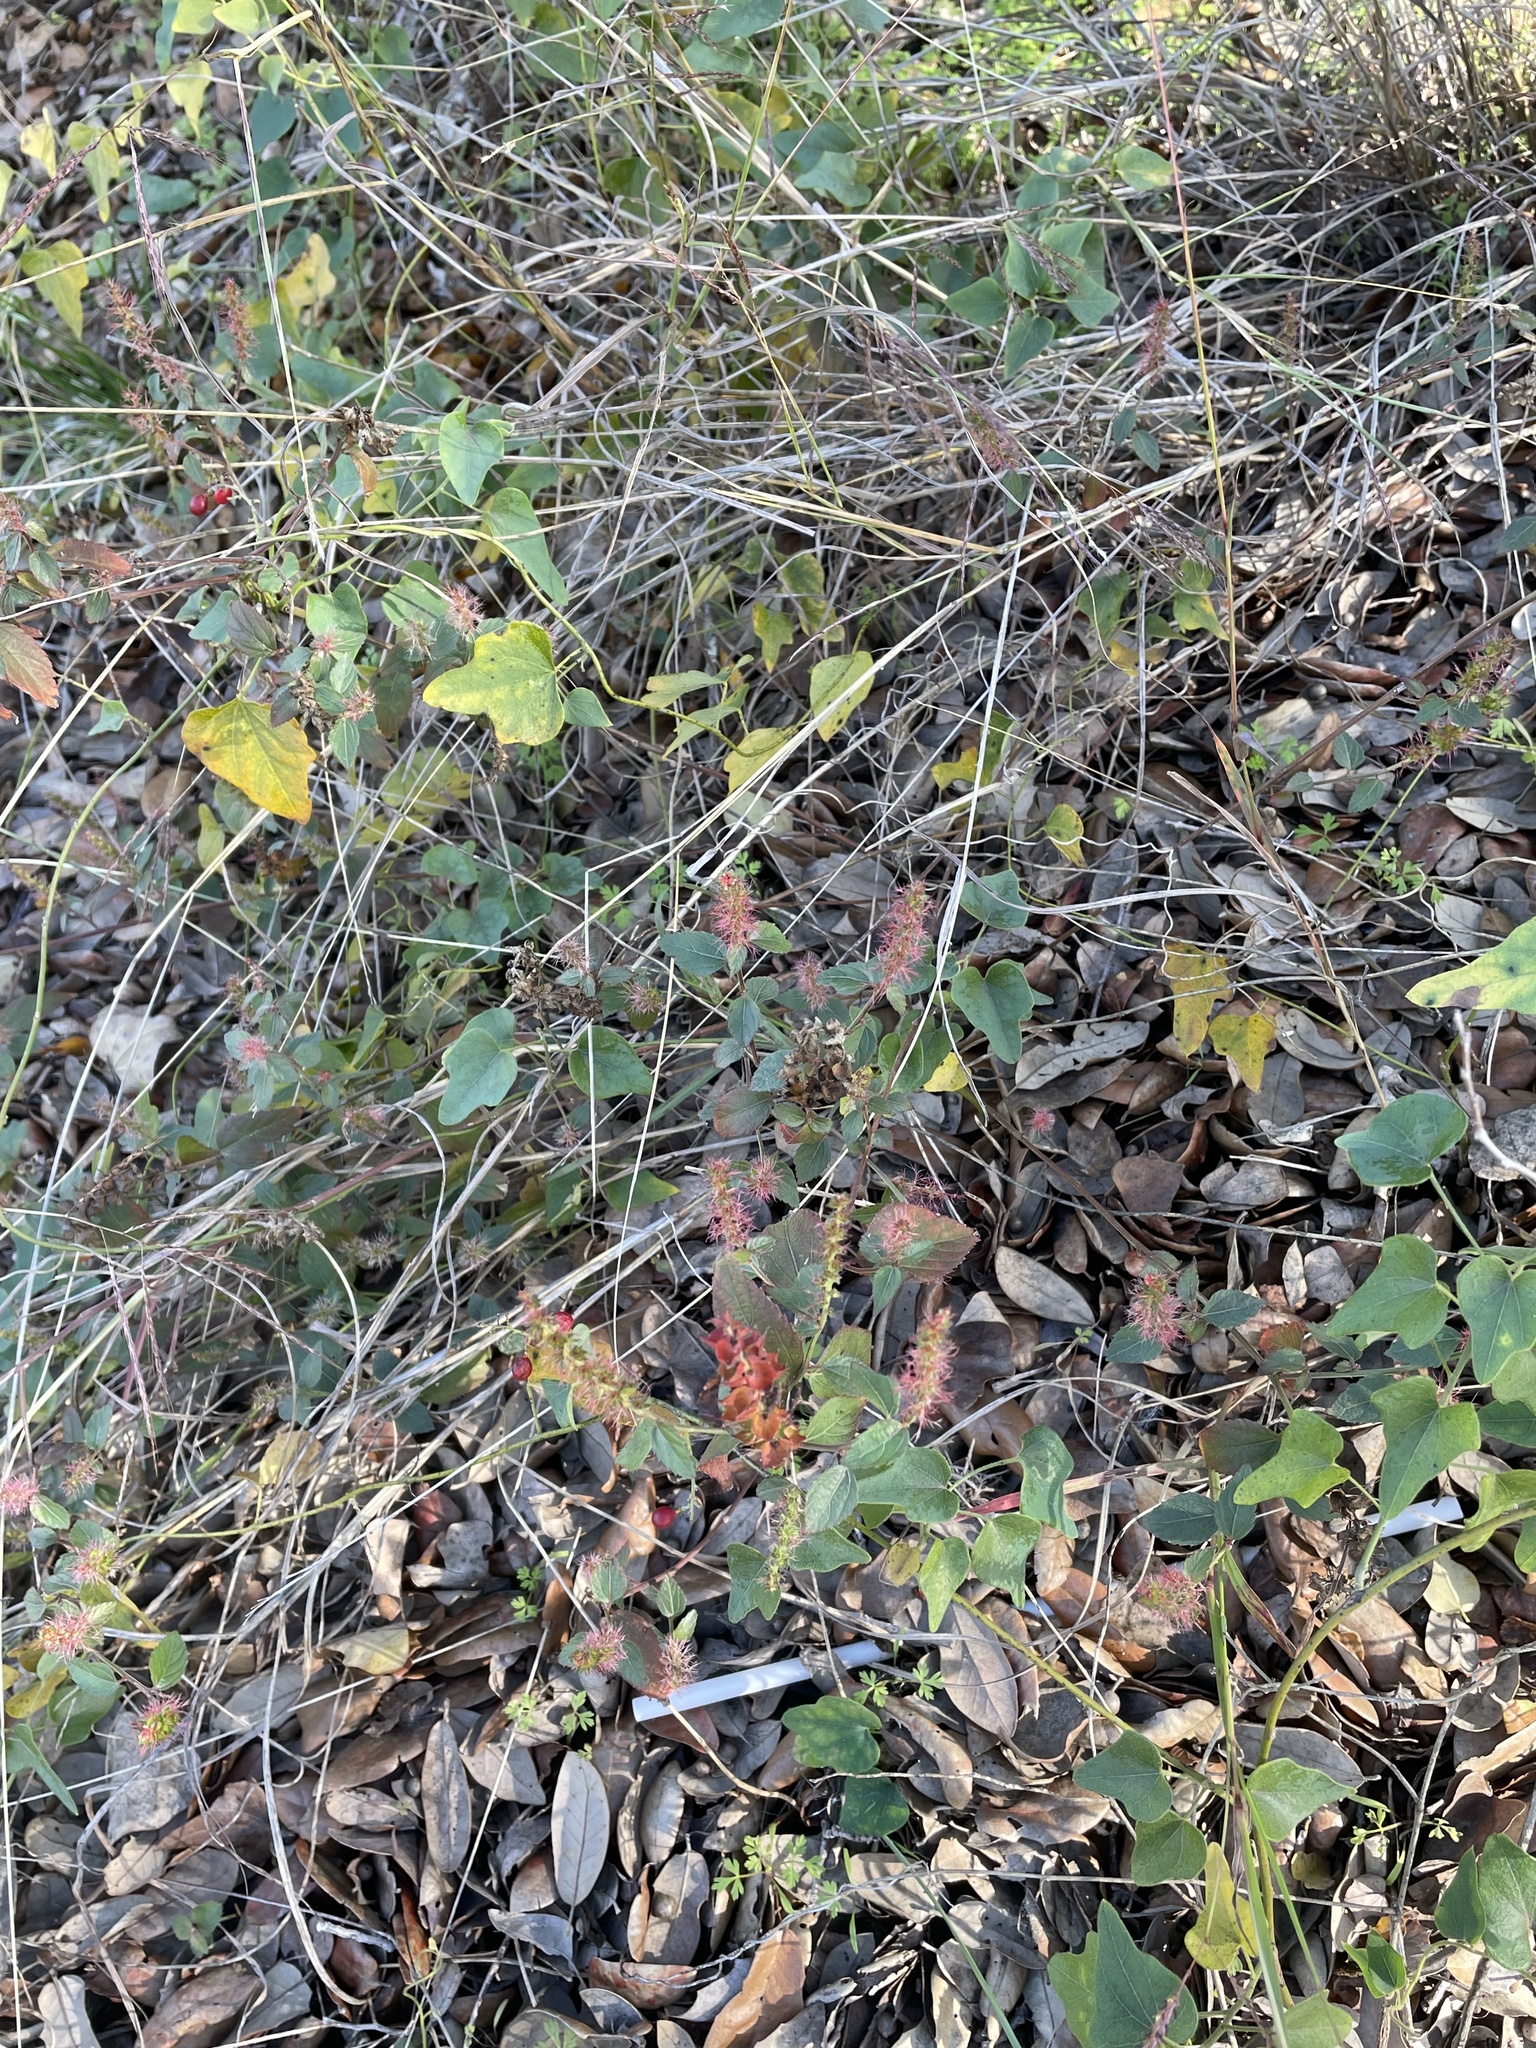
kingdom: Plantae
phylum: Tracheophyta
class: Magnoliopsida
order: Malpighiales
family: Euphorbiaceae
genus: Acalypha
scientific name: Acalypha phleoides
